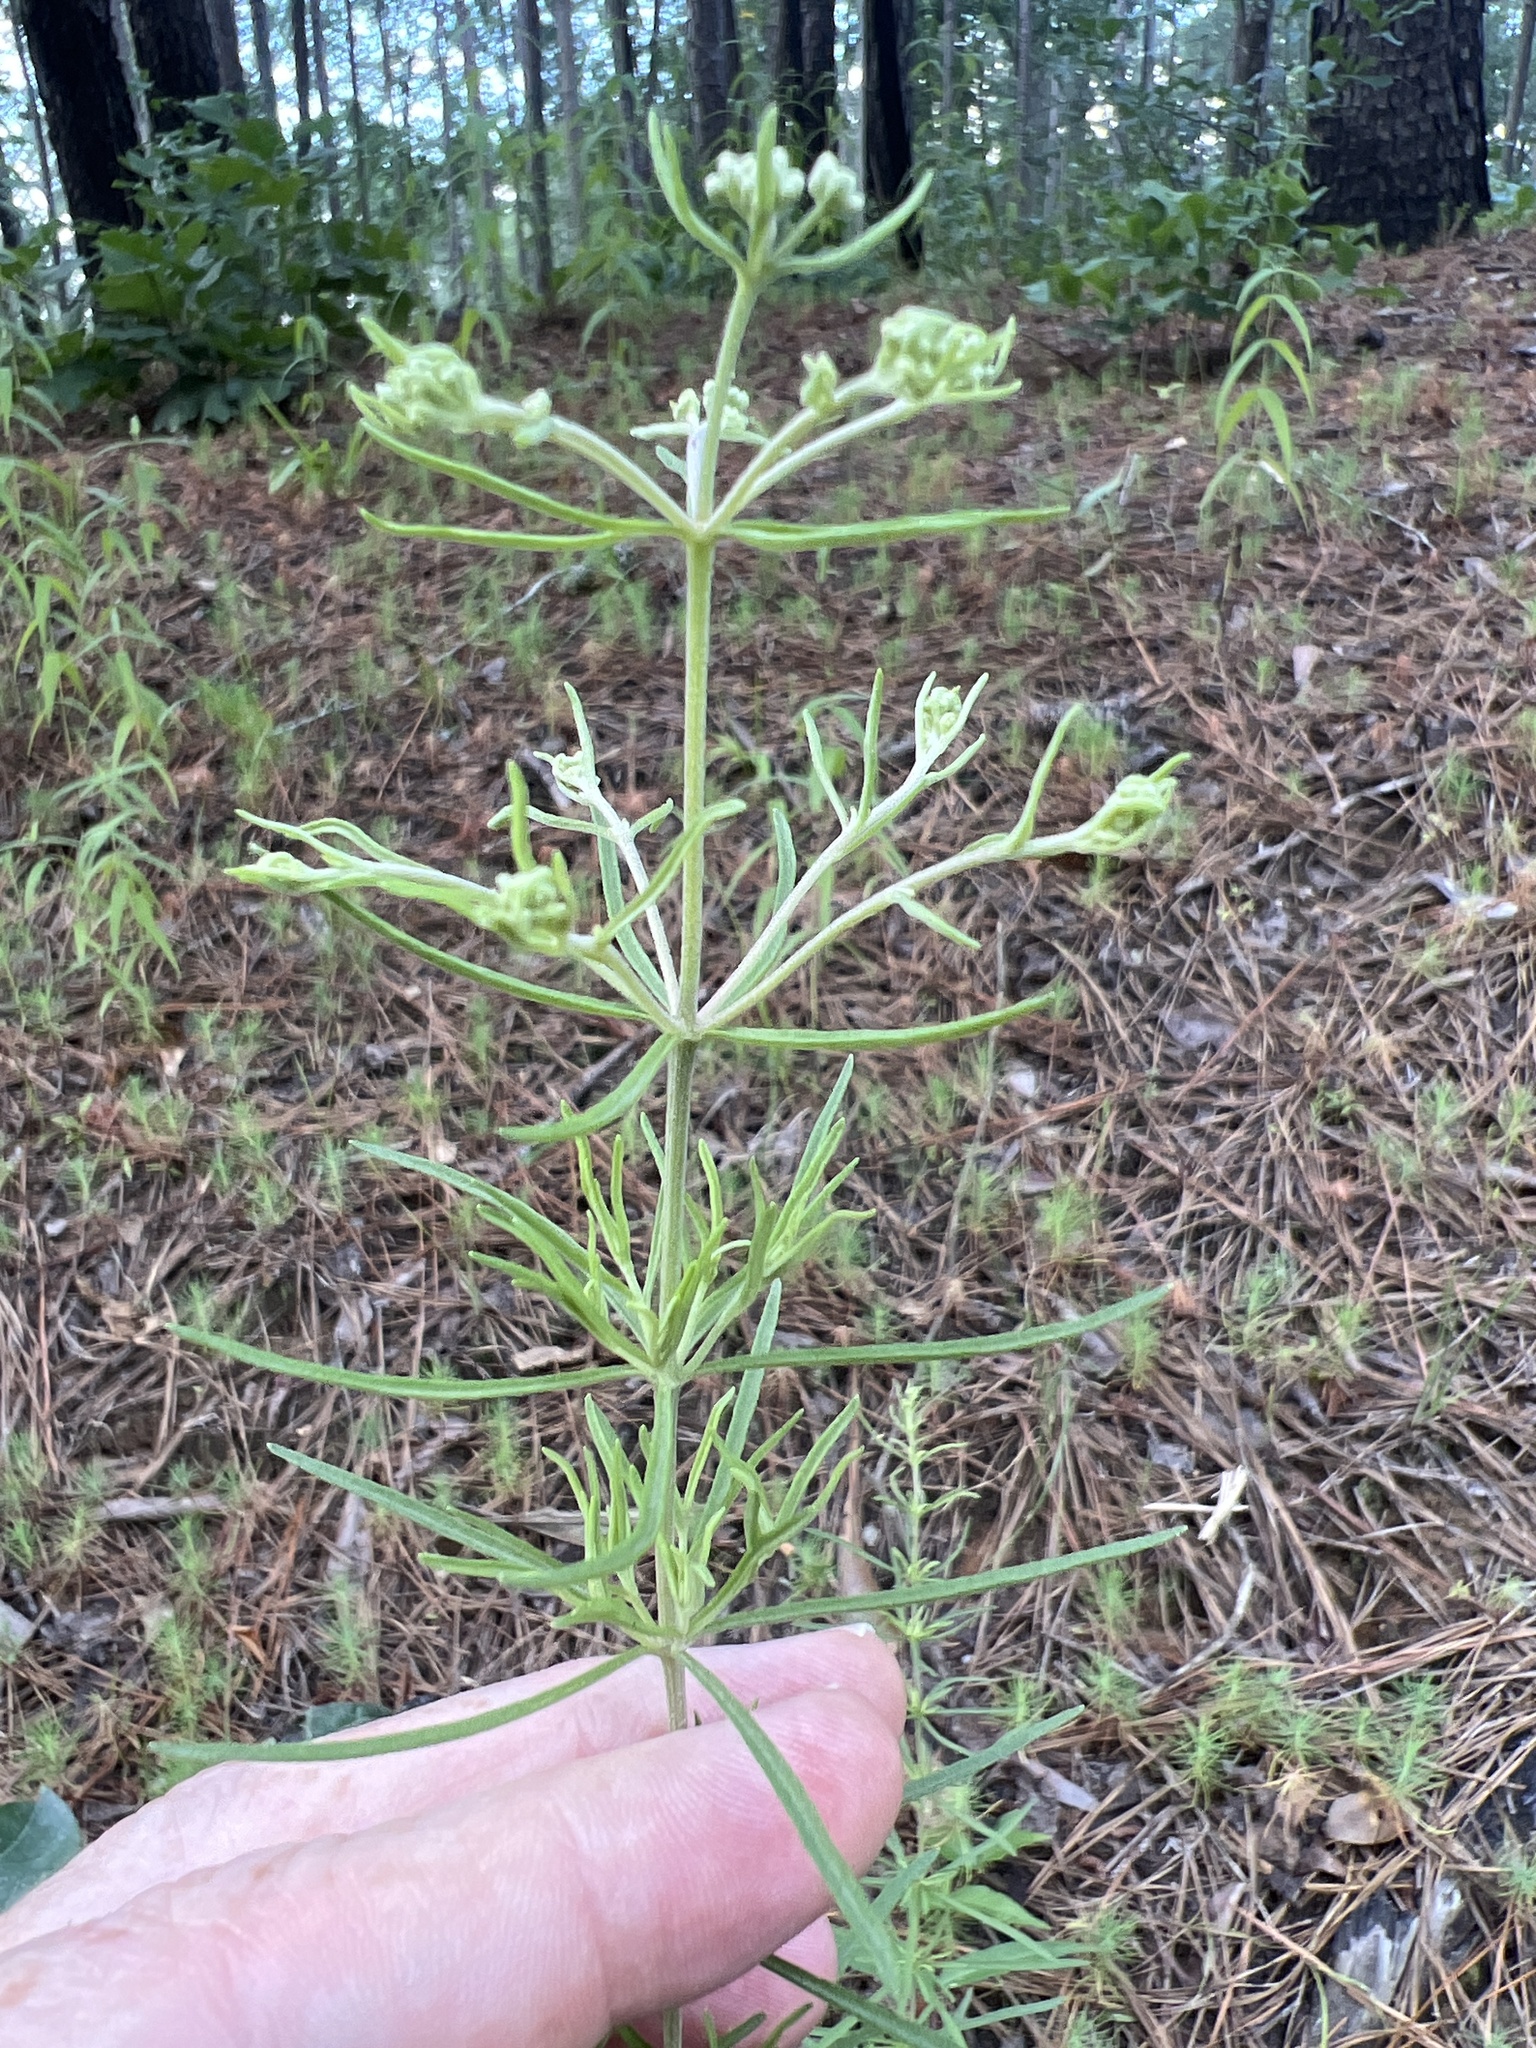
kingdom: Plantae
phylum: Tracheophyta
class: Magnoliopsida
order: Asterales
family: Asteraceae
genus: Eupatorium
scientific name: Eupatorium hyssopifolium
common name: Hyssop-leaf thoroughwort
